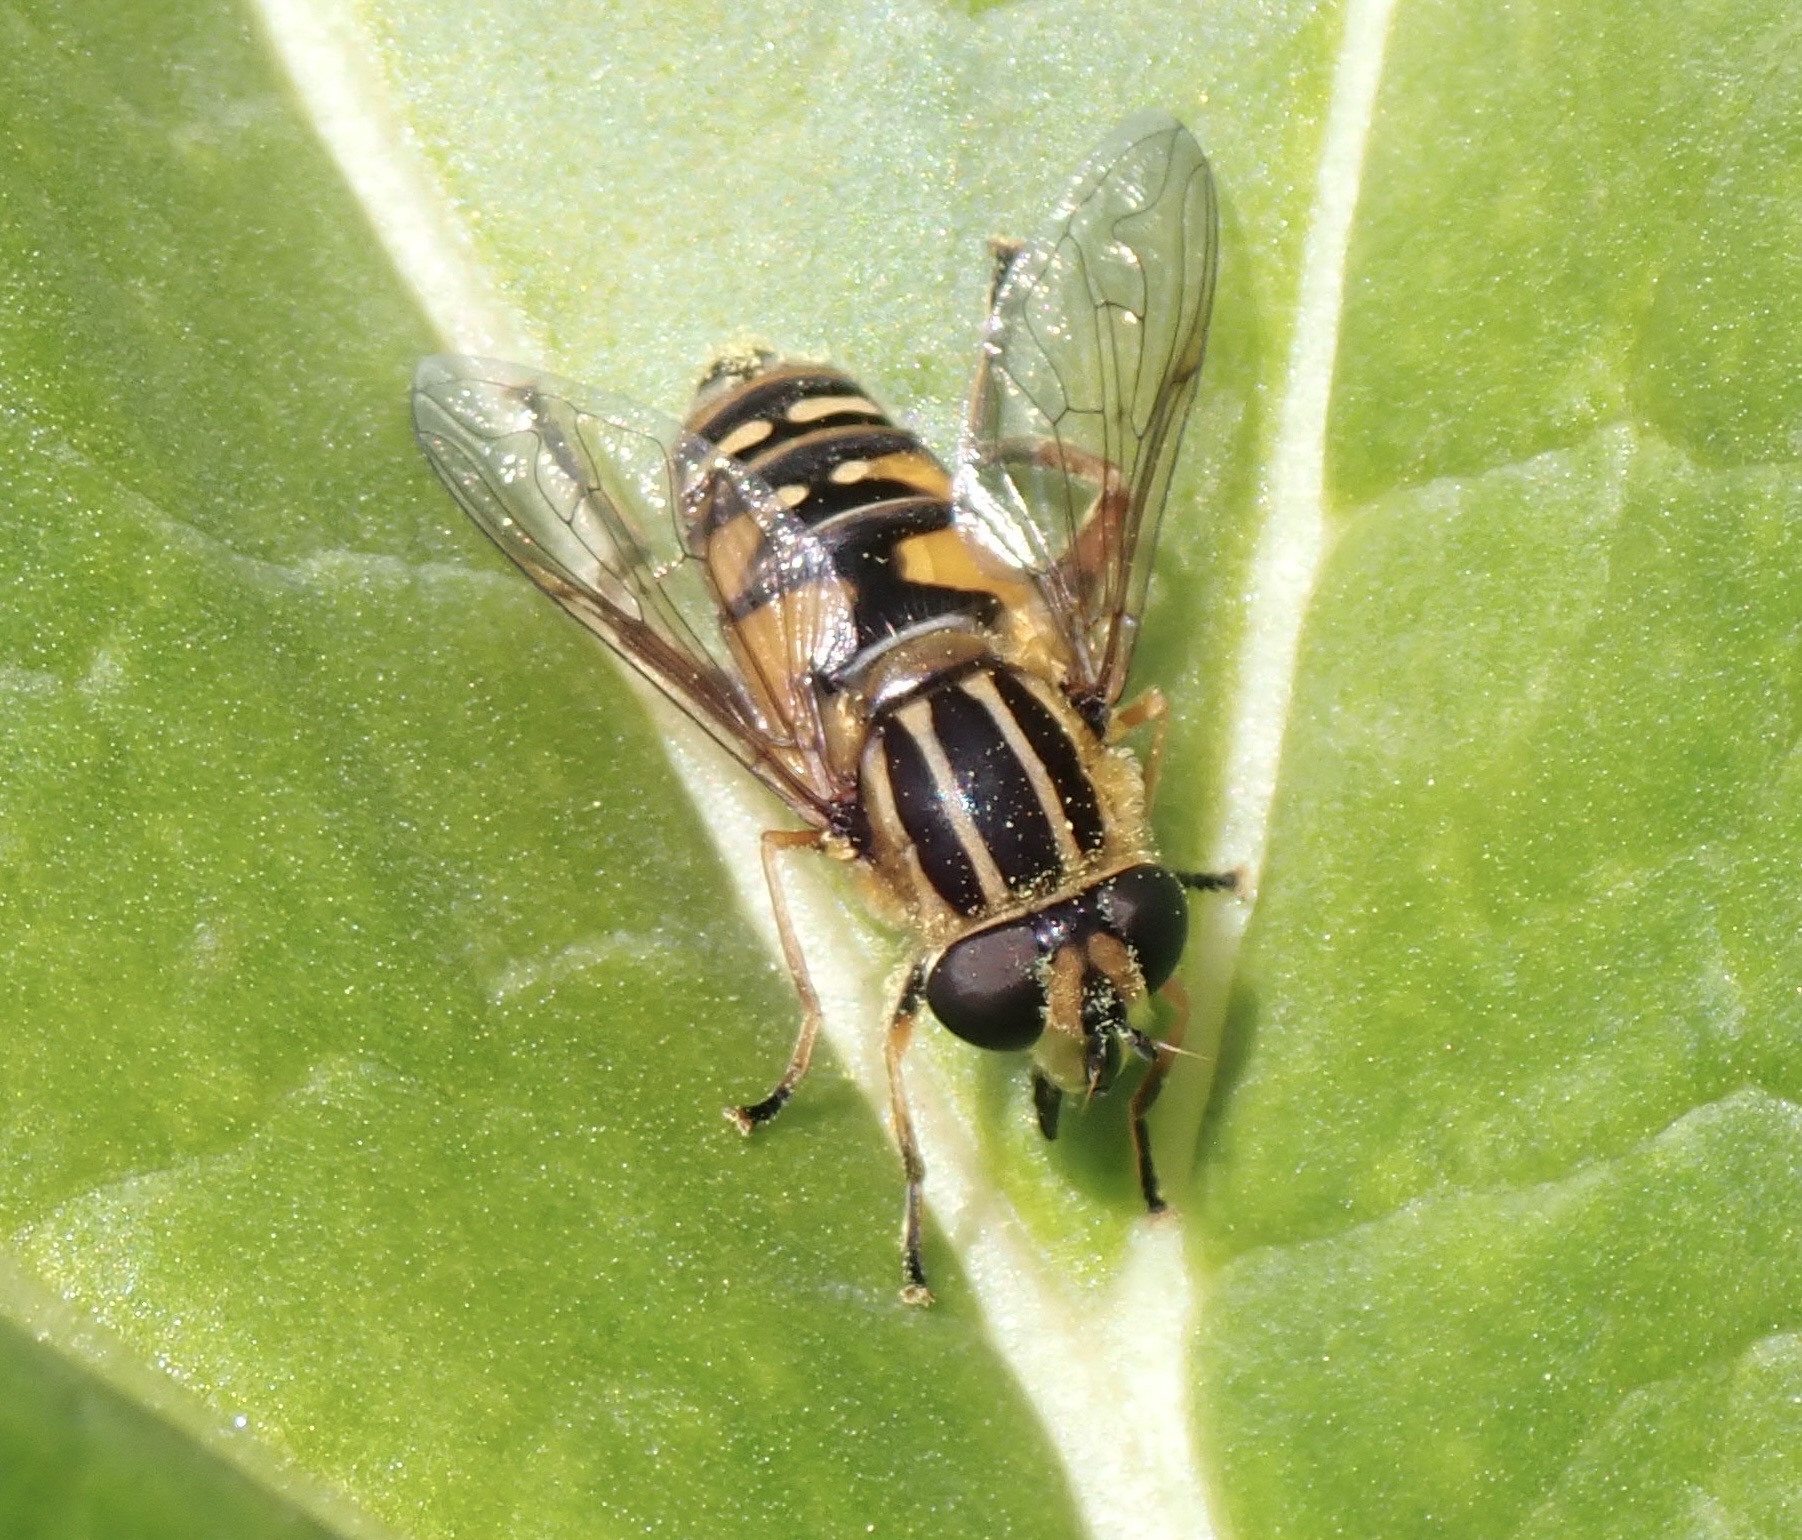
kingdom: Animalia
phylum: Arthropoda
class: Insecta
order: Diptera
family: Syrphidae
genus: Helophilus
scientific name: Helophilus pendulus
